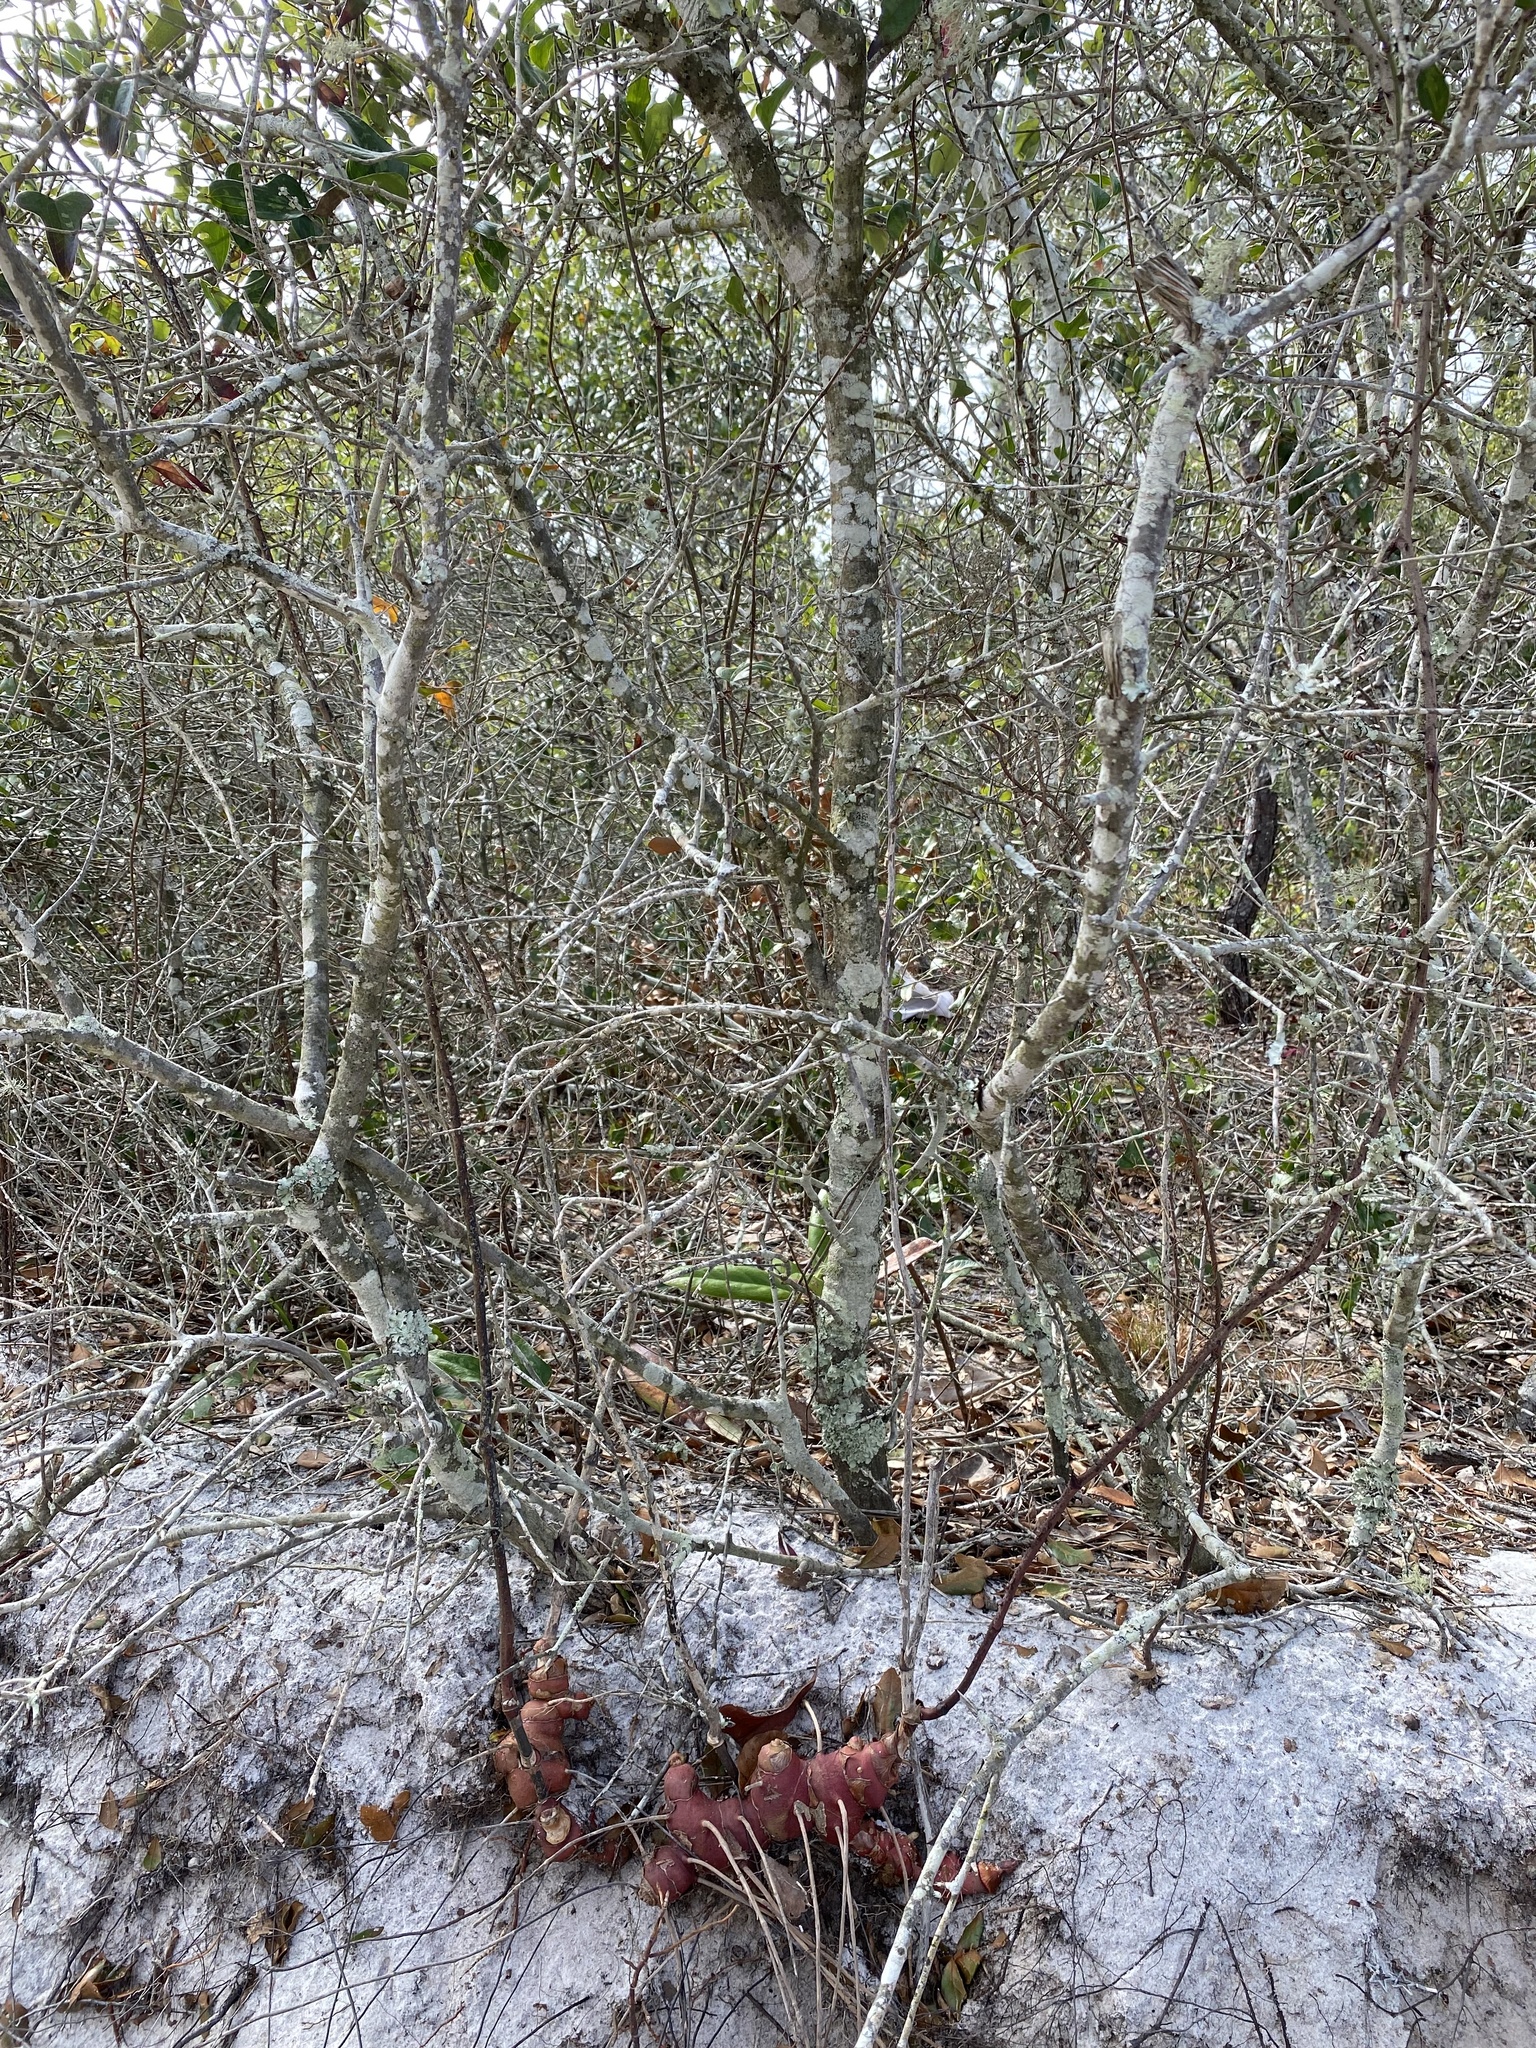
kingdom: Plantae
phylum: Tracheophyta
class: Liliopsida
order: Liliales
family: Smilacaceae
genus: Smilax
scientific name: Smilax bona-nox
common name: Catbrier
